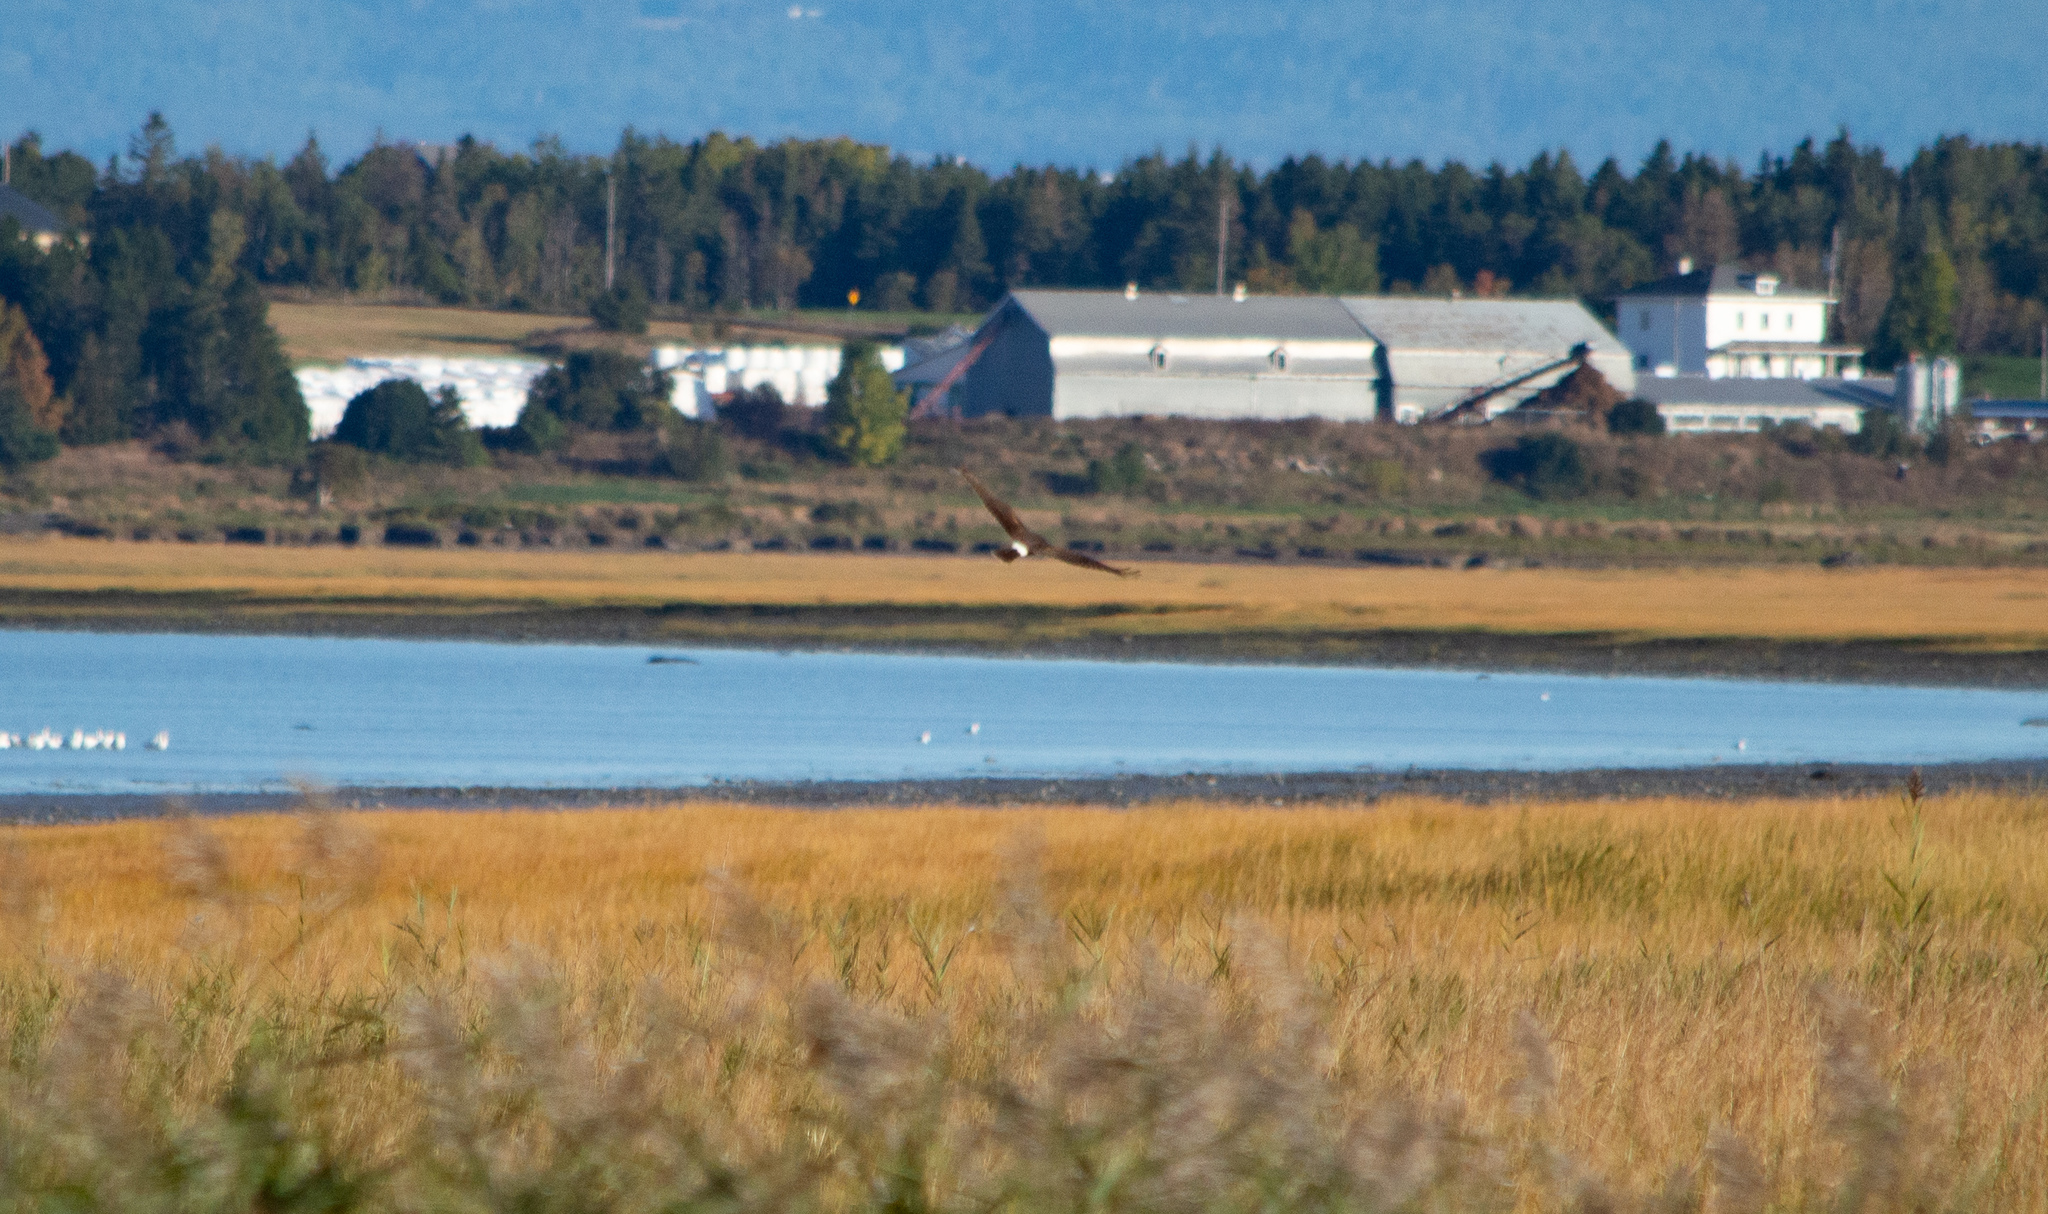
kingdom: Animalia
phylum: Chordata
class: Aves
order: Accipitriformes
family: Accipitridae
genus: Circus
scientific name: Circus cyaneus
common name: Hen harrier
